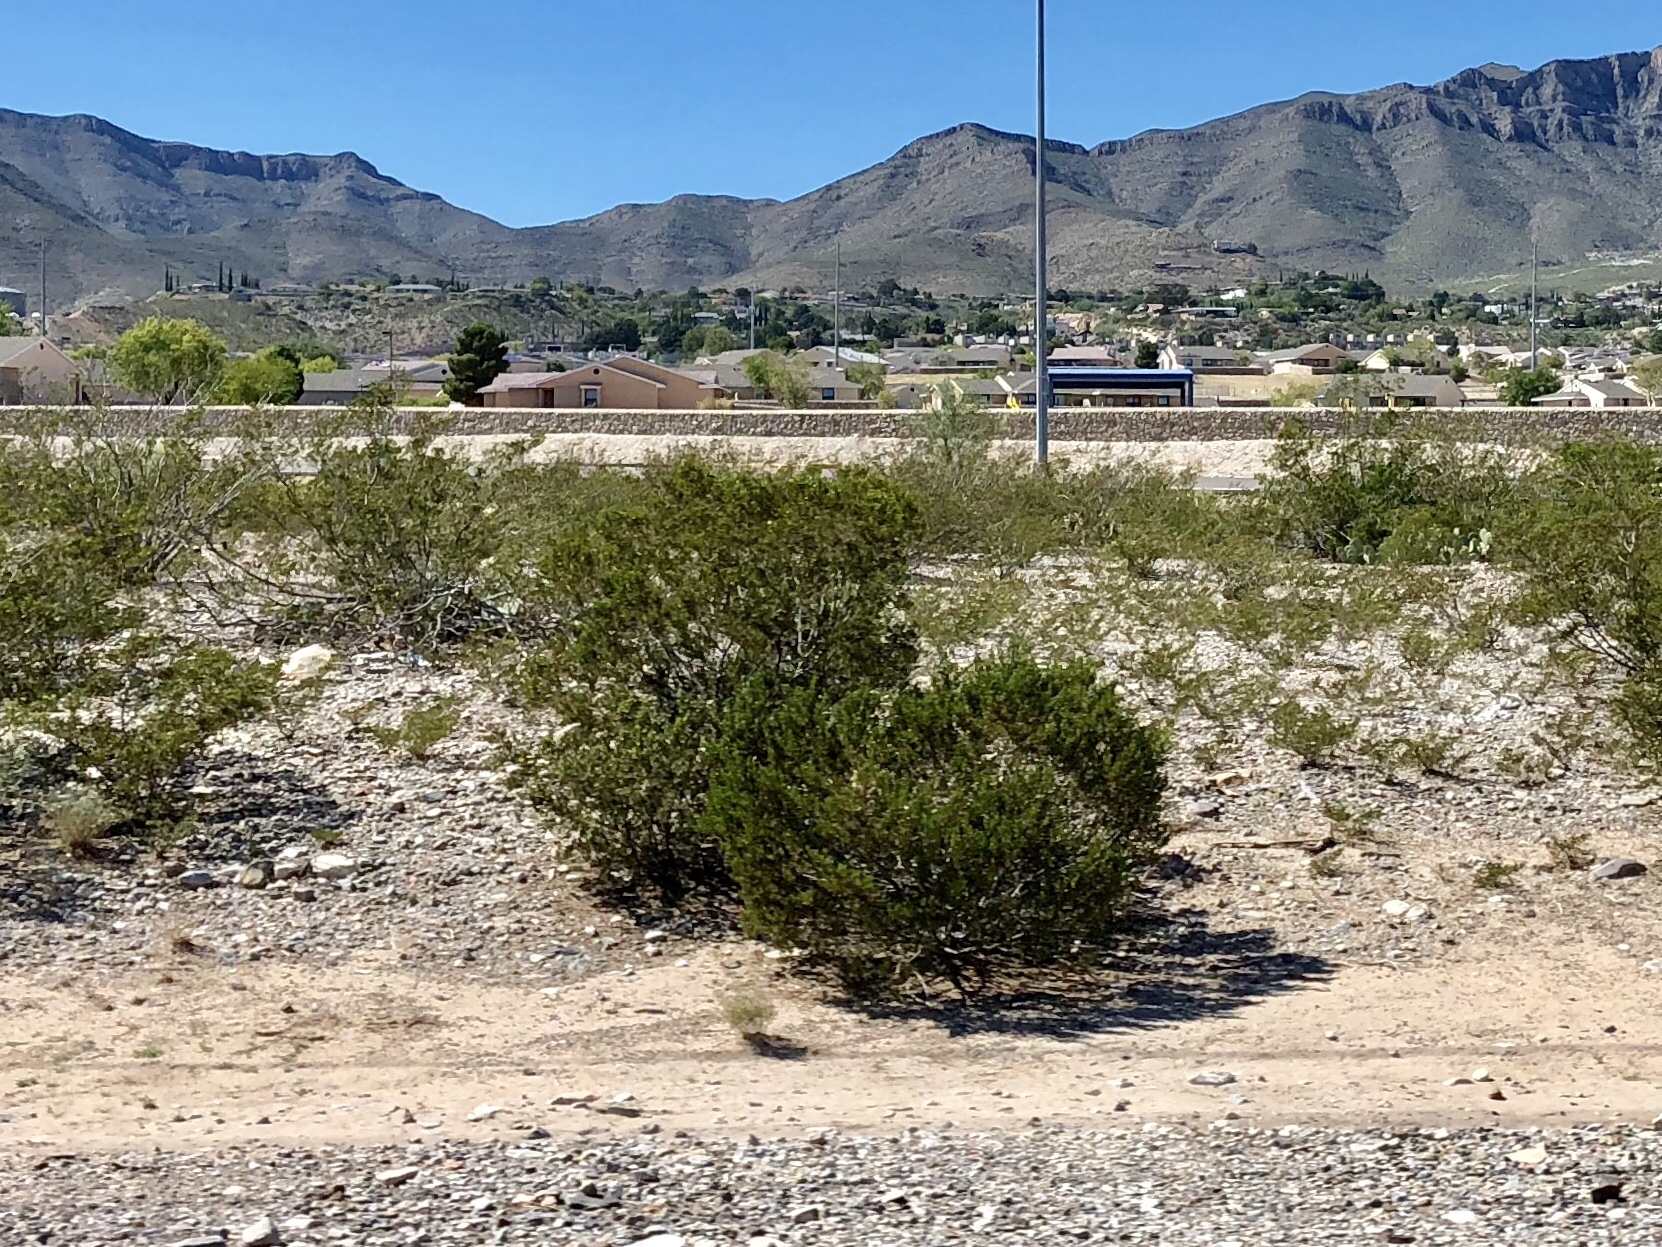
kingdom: Plantae
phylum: Tracheophyta
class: Magnoliopsida
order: Zygophyllales
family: Zygophyllaceae
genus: Larrea
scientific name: Larrea tridentata
